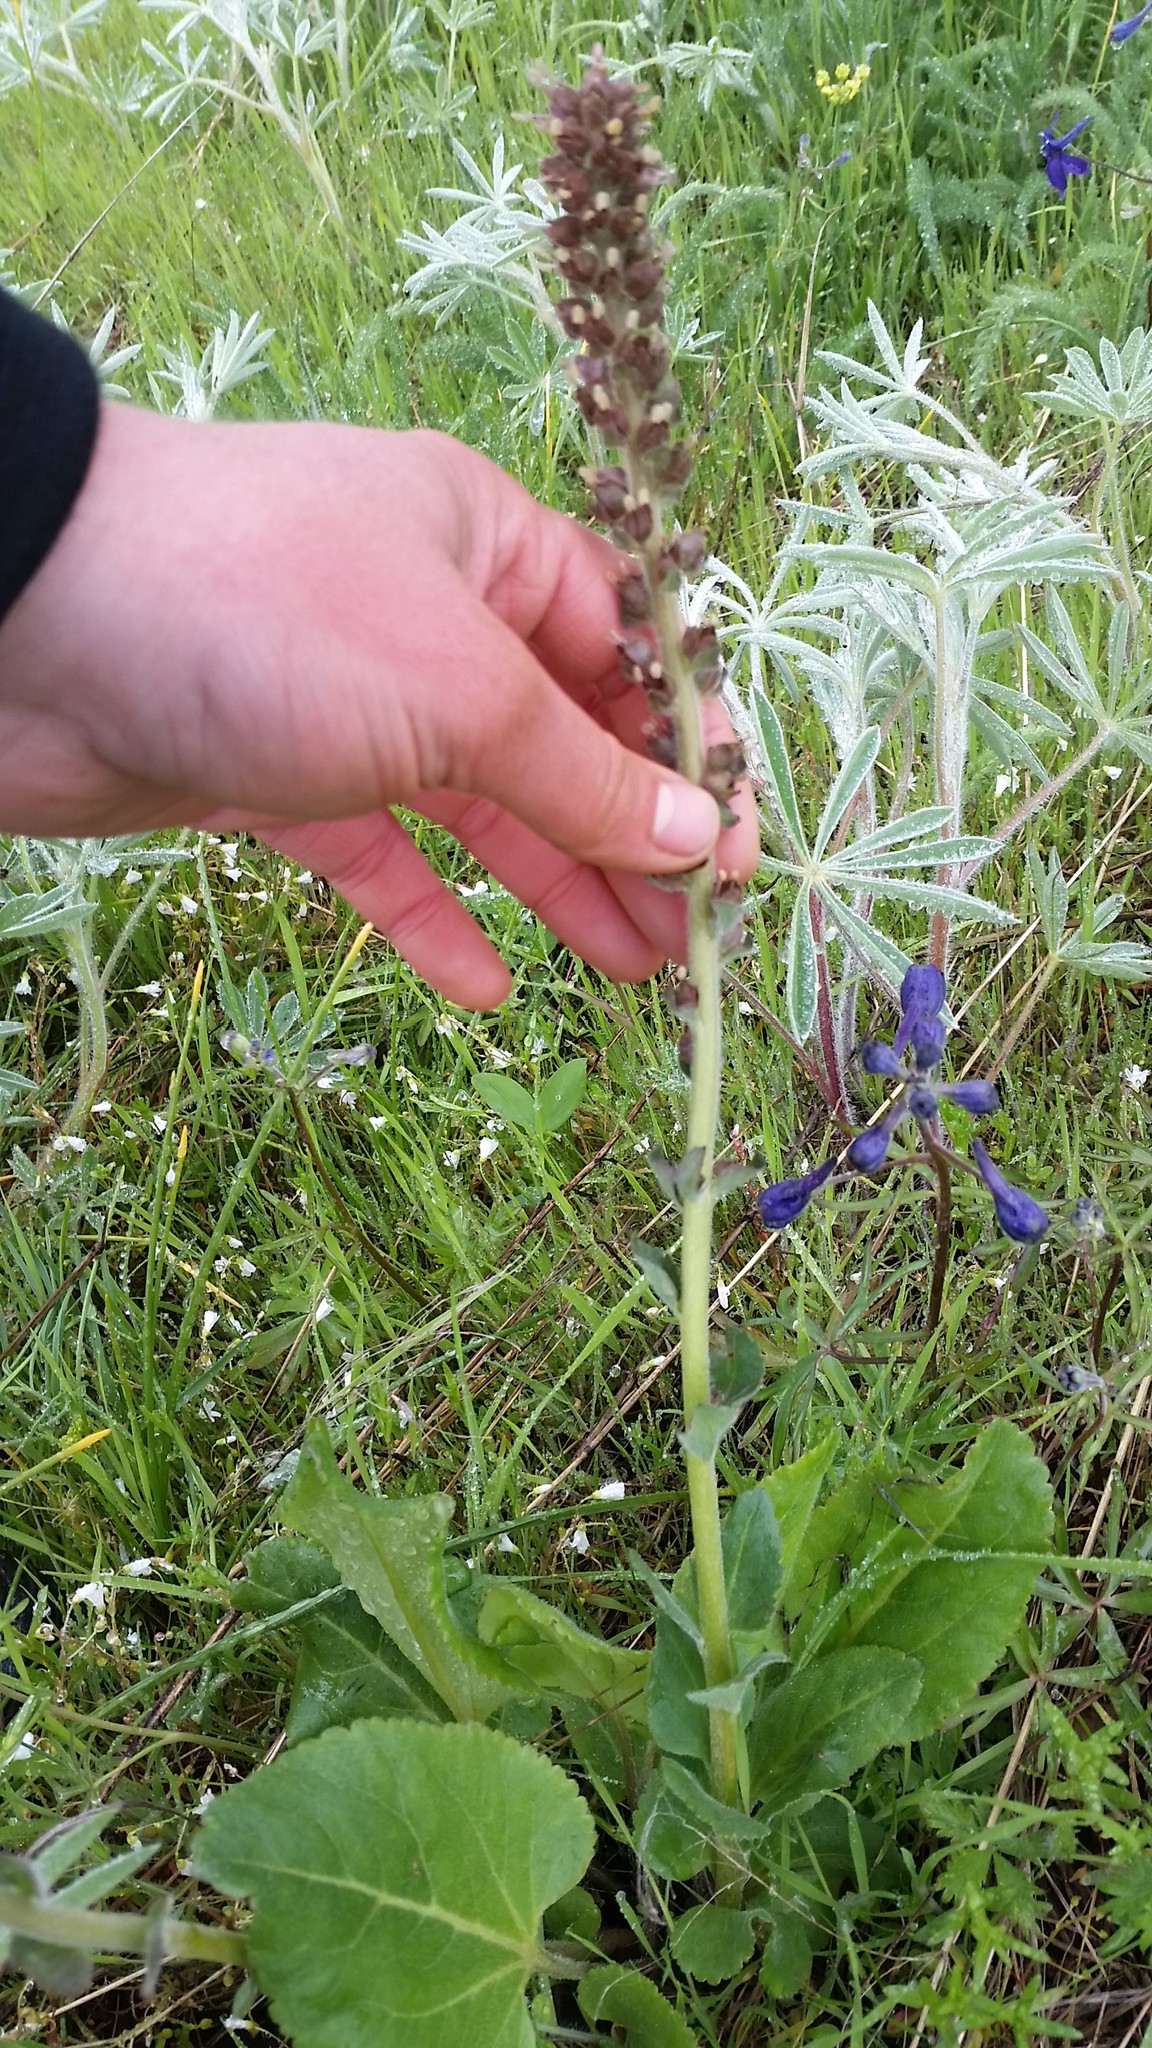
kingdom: Plantae
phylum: Tracheophyta
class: Magnoliopsida
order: Lamiales
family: Plantaginaceae
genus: Synthyris
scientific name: Synthyris rubra
